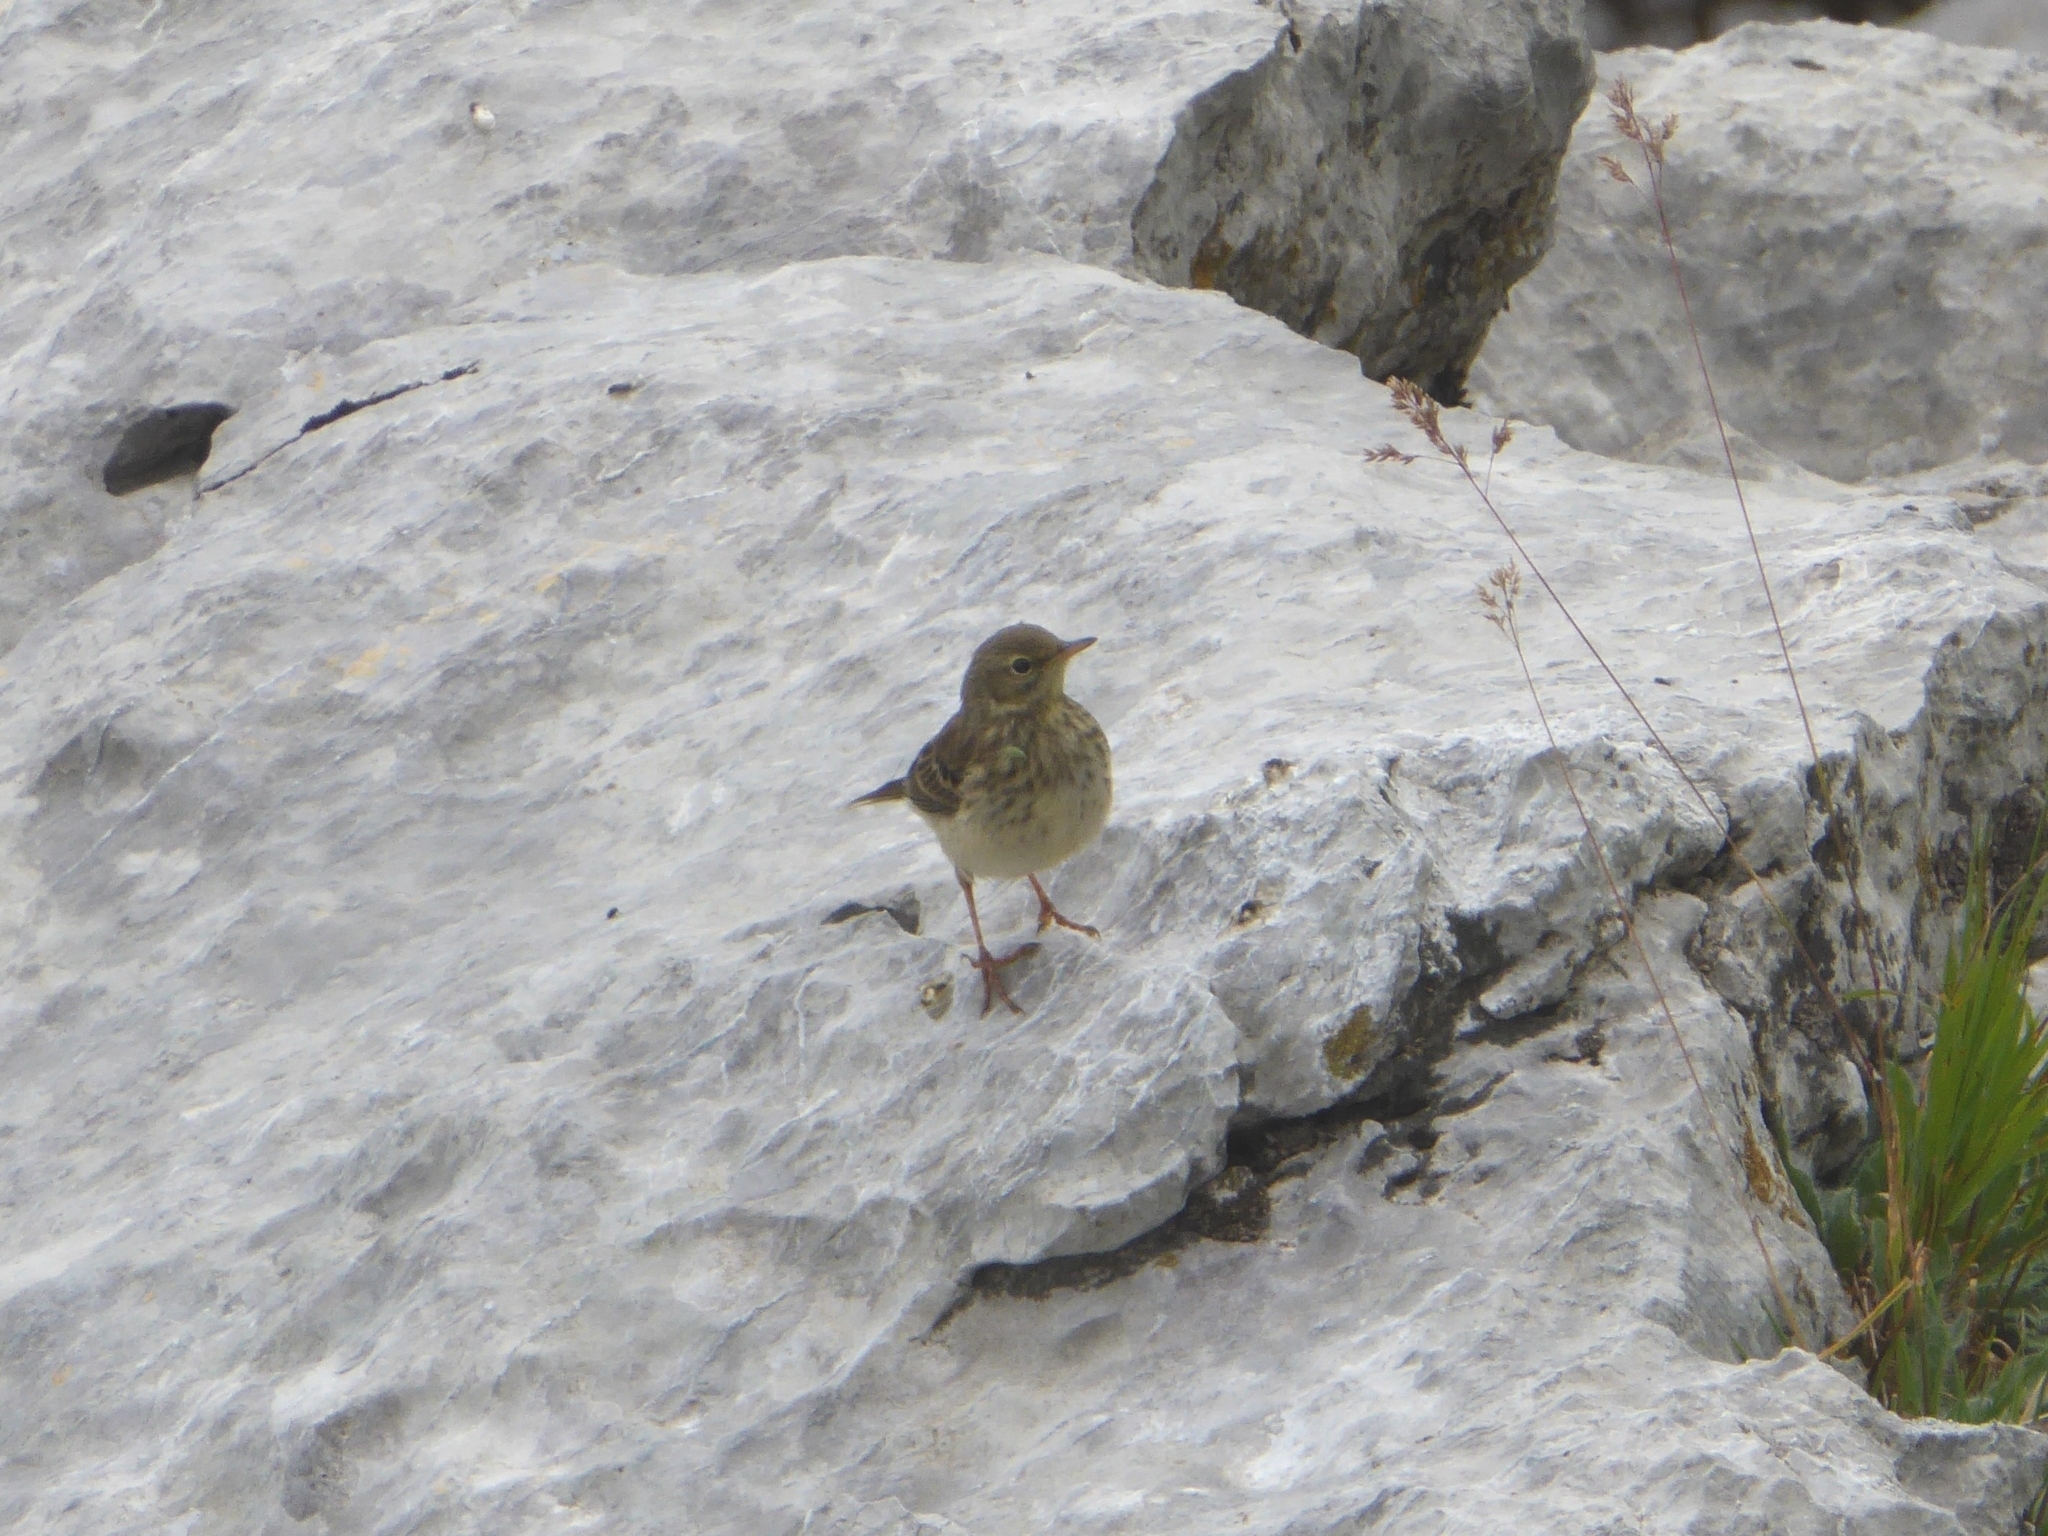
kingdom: Animalia
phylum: Chordata
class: Aves
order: Passeriformes
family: Motacillidae
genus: Anthus
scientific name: Anthus spinoletta
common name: Water pipit
